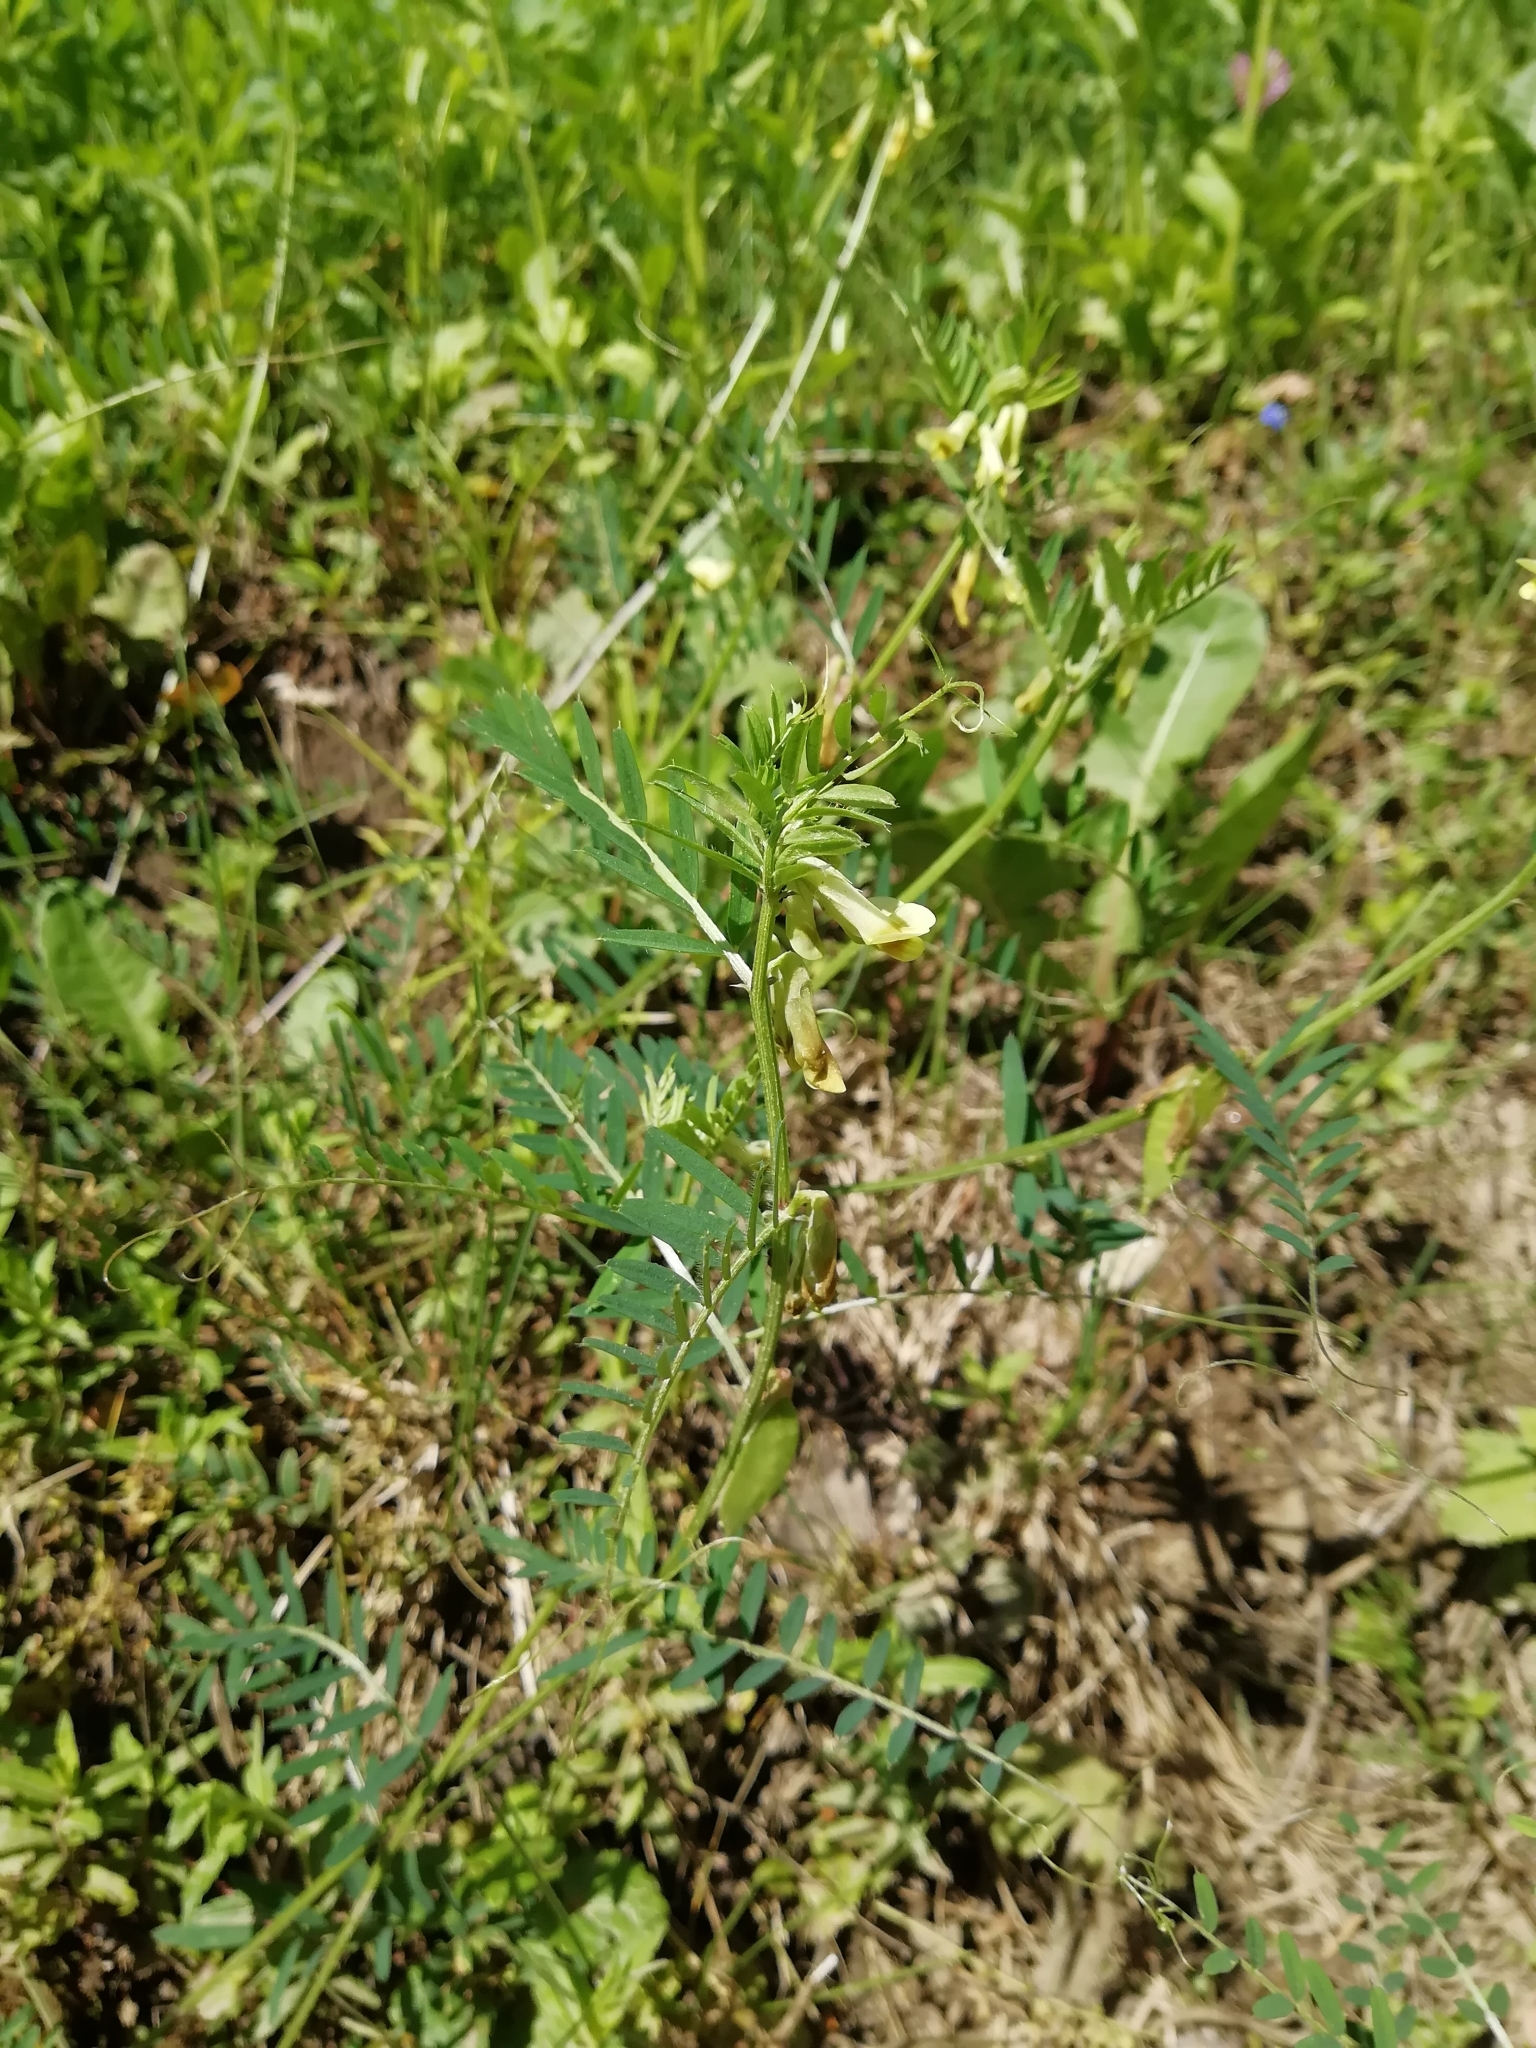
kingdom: Plantae
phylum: Tracheophyta
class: Magnoliopsida
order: Fabales
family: Fabaceae
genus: Vicia
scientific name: Vicia ciliatula
